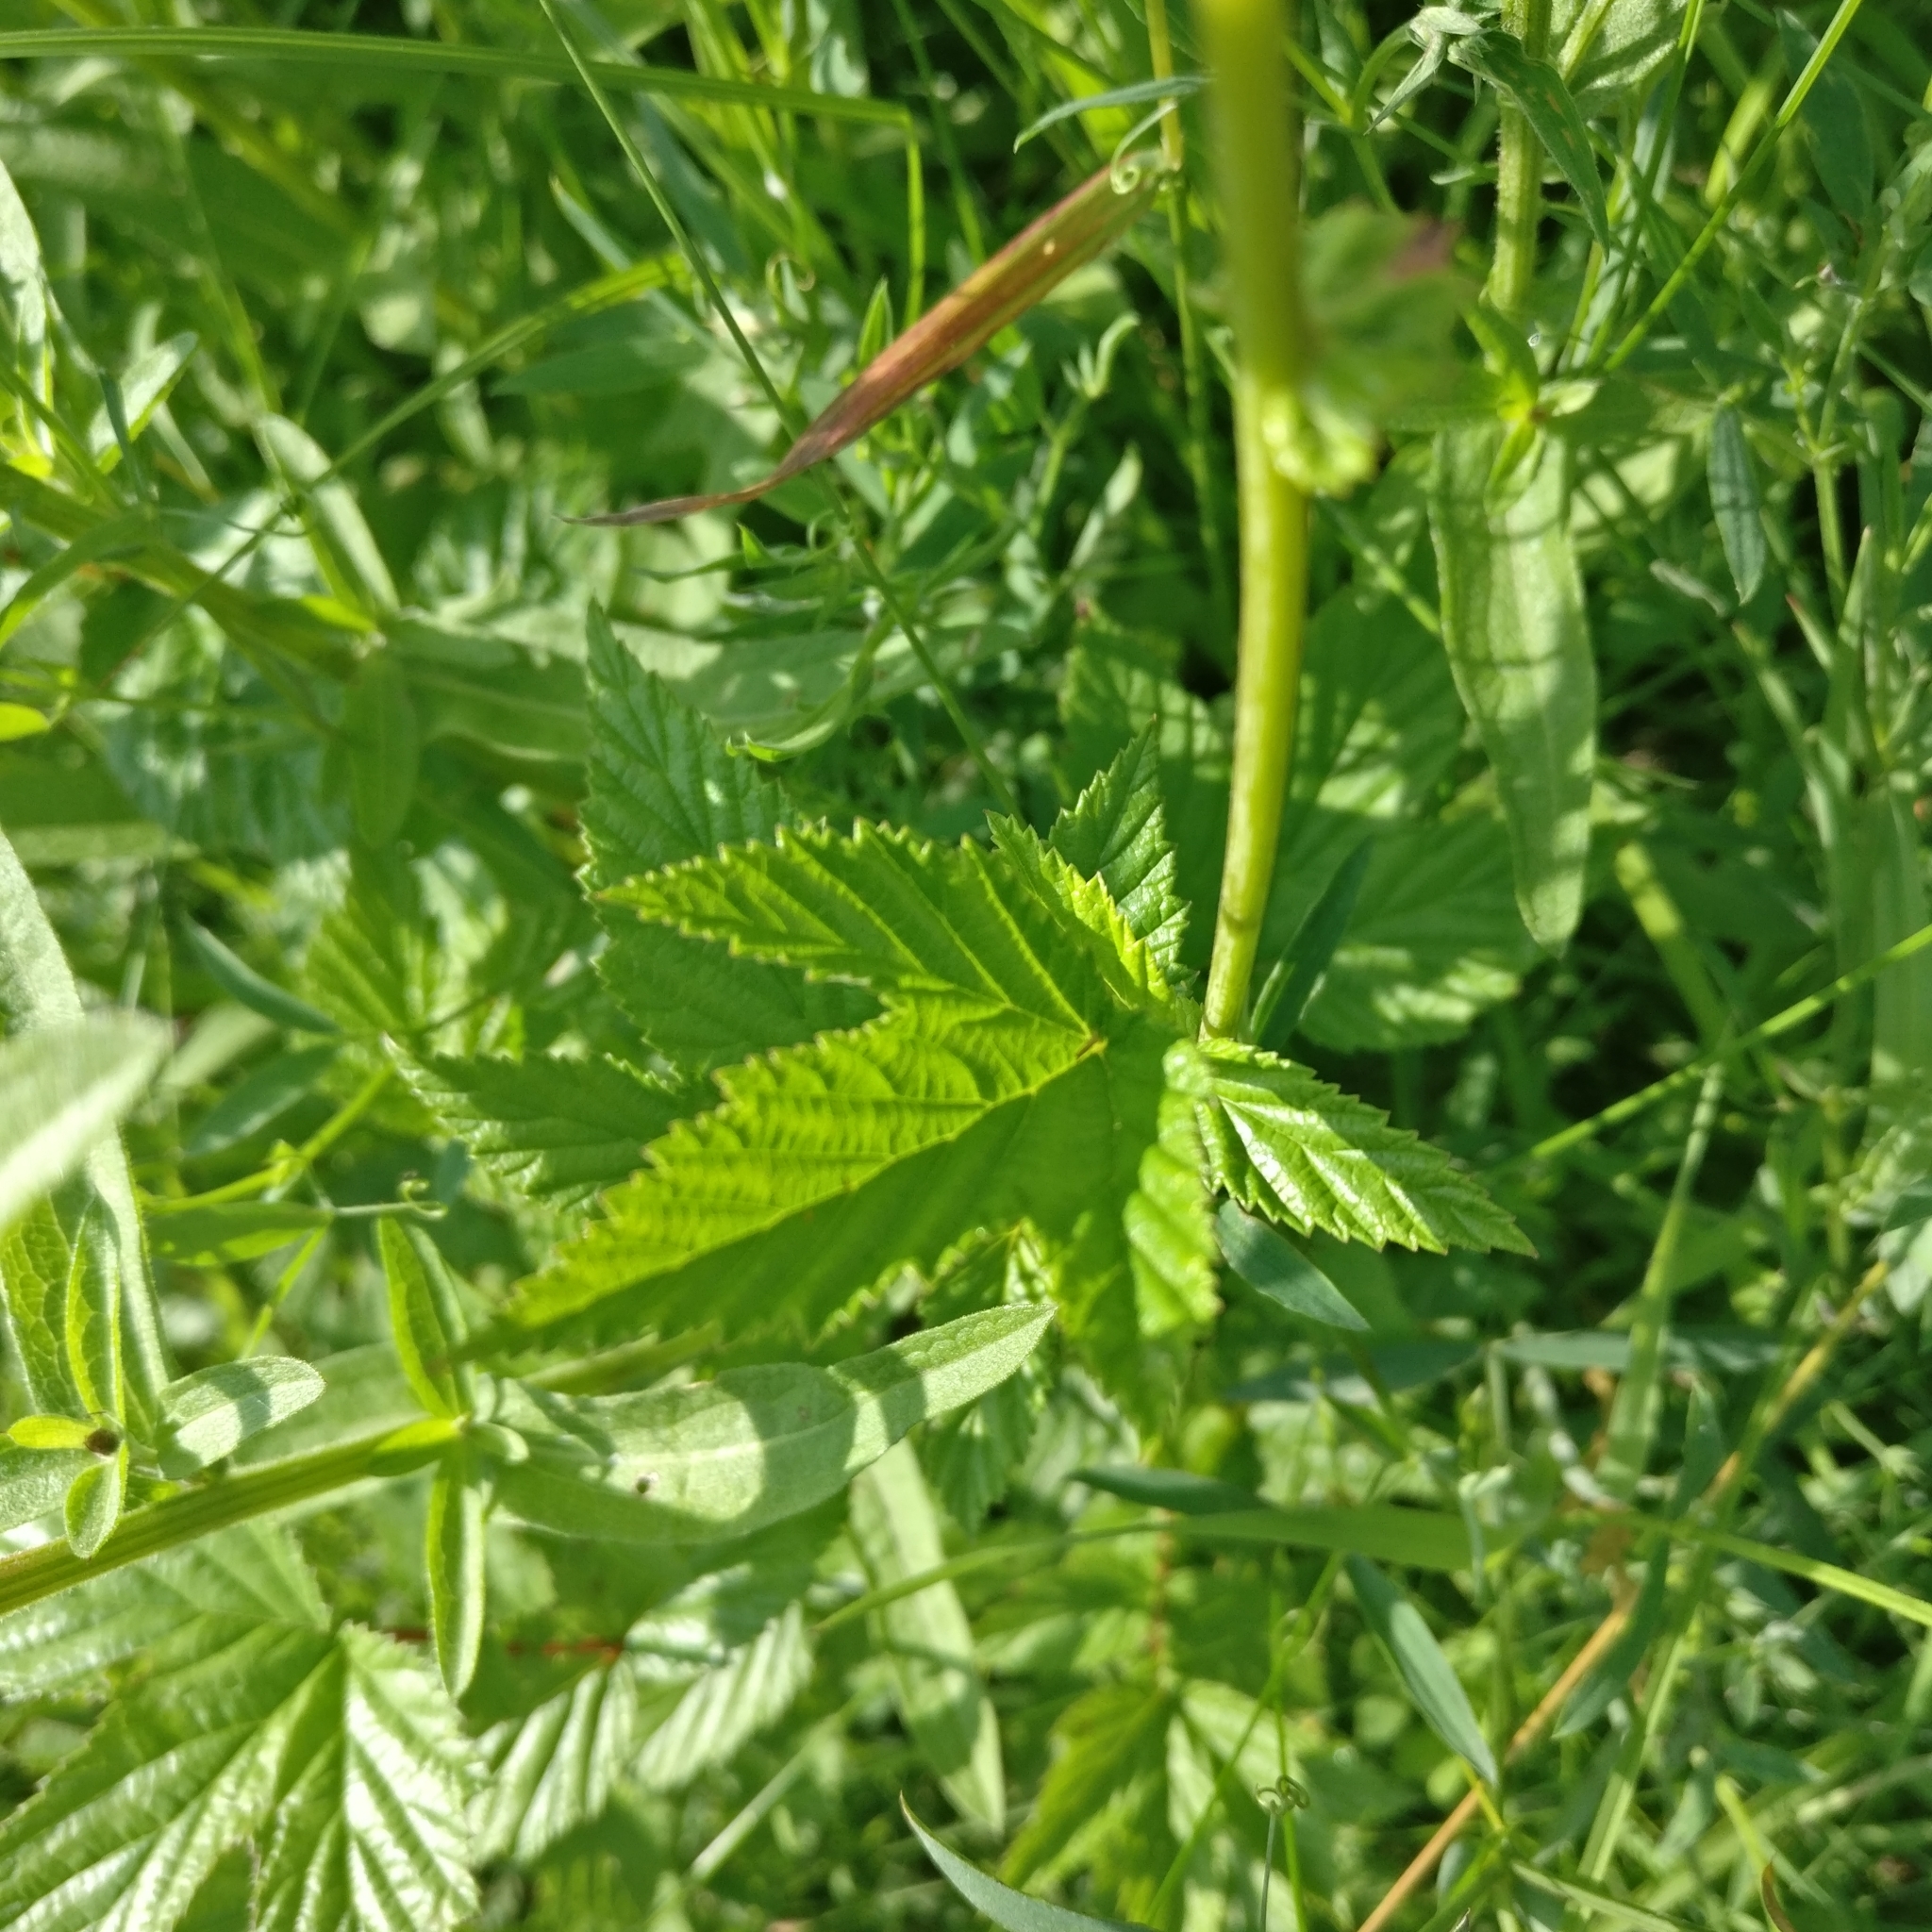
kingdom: Plantae
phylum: Tracheophyta
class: Magnoliopsida
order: Rosales
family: Rosaceae
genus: Filipendula
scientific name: Filipendula ulmaria
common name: Meadowsweet
